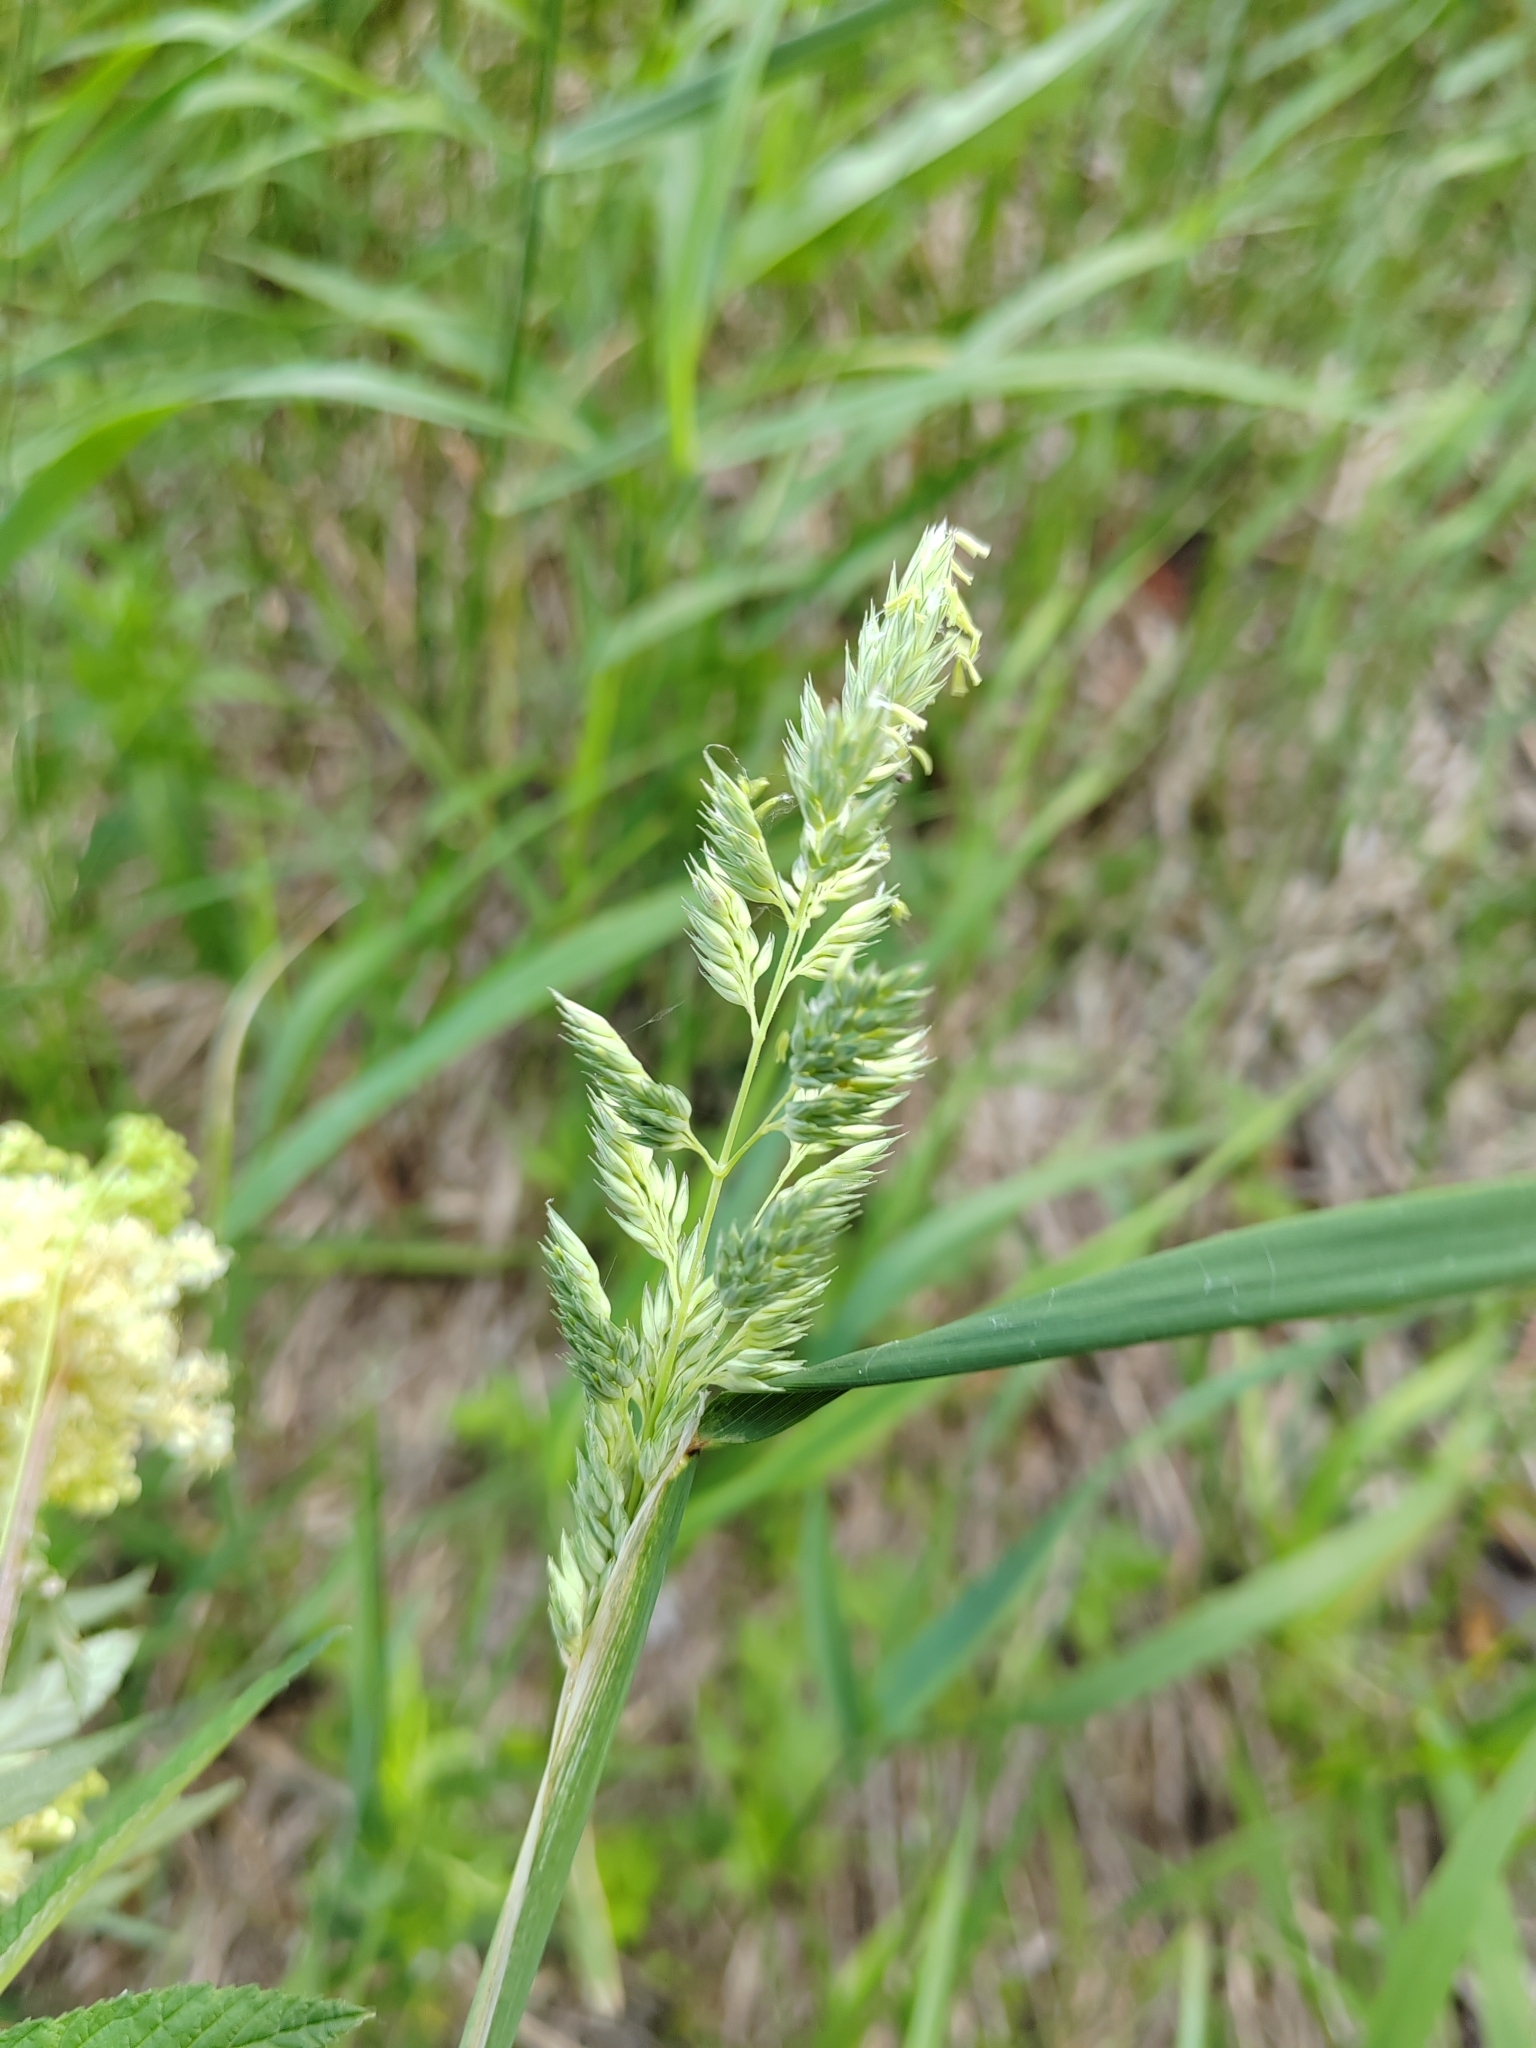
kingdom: Plantae
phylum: Tracheophyta
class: Liliopsida
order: Poales
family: Poaceae
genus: Phalaris
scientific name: Phalaris arundinacea
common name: Reed canary-grass
